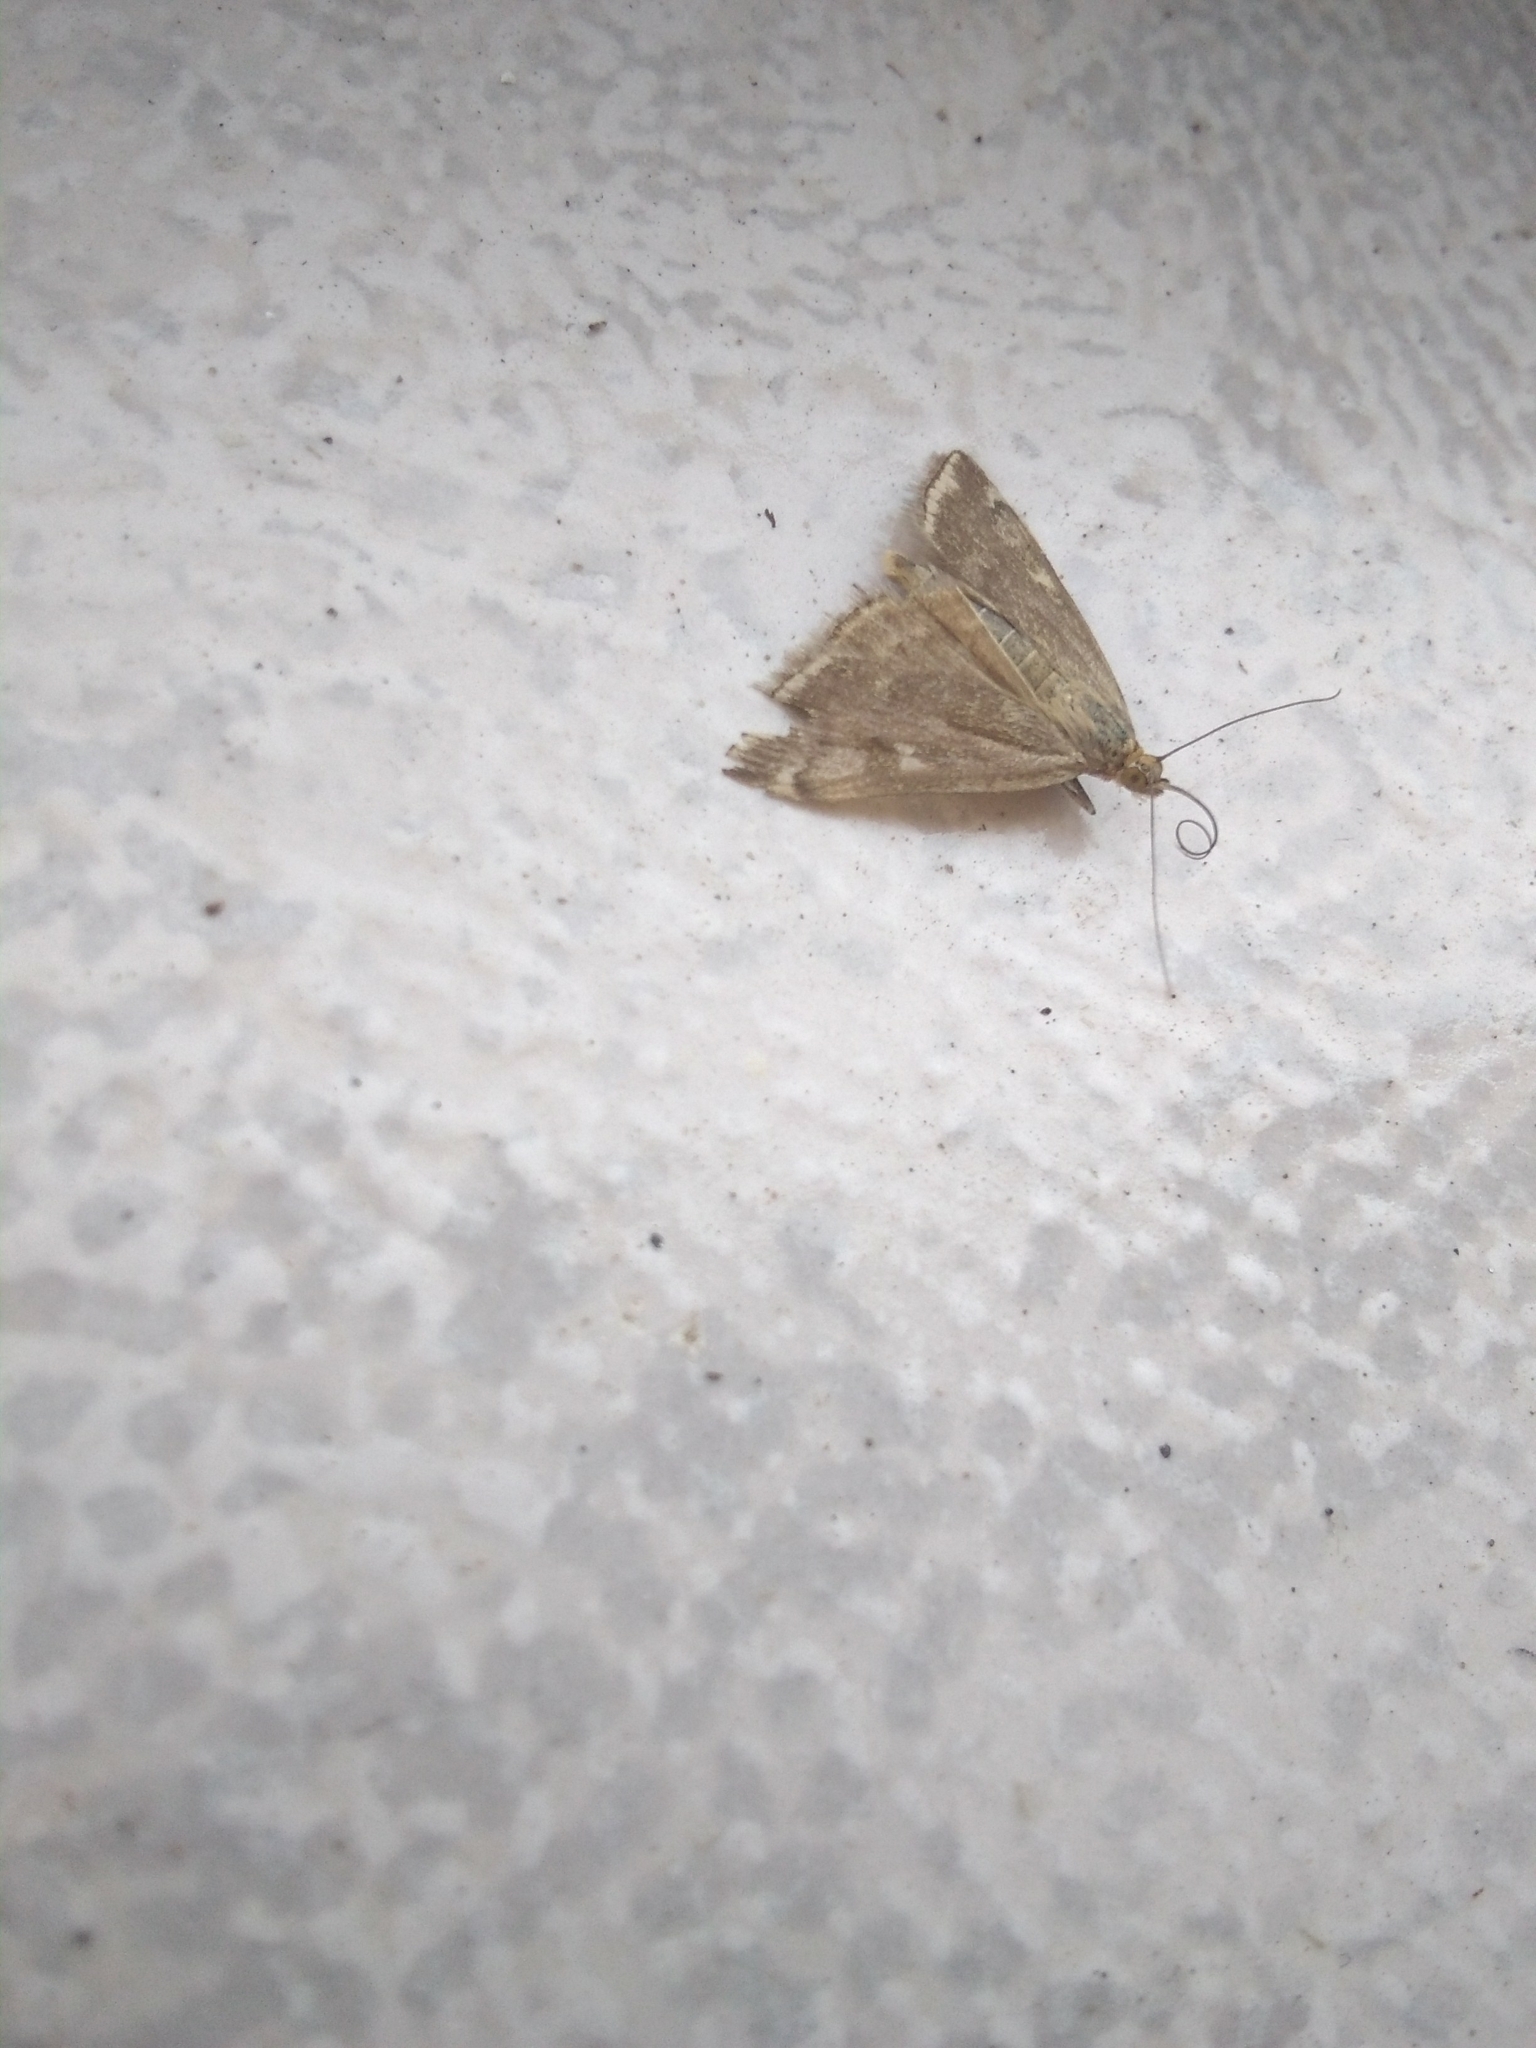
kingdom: Animalia
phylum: Arthropoda
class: Insecta
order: Lepidoptera
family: Crambidae
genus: Loxostege
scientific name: Loxostege sticticalis
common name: Crambid moth
